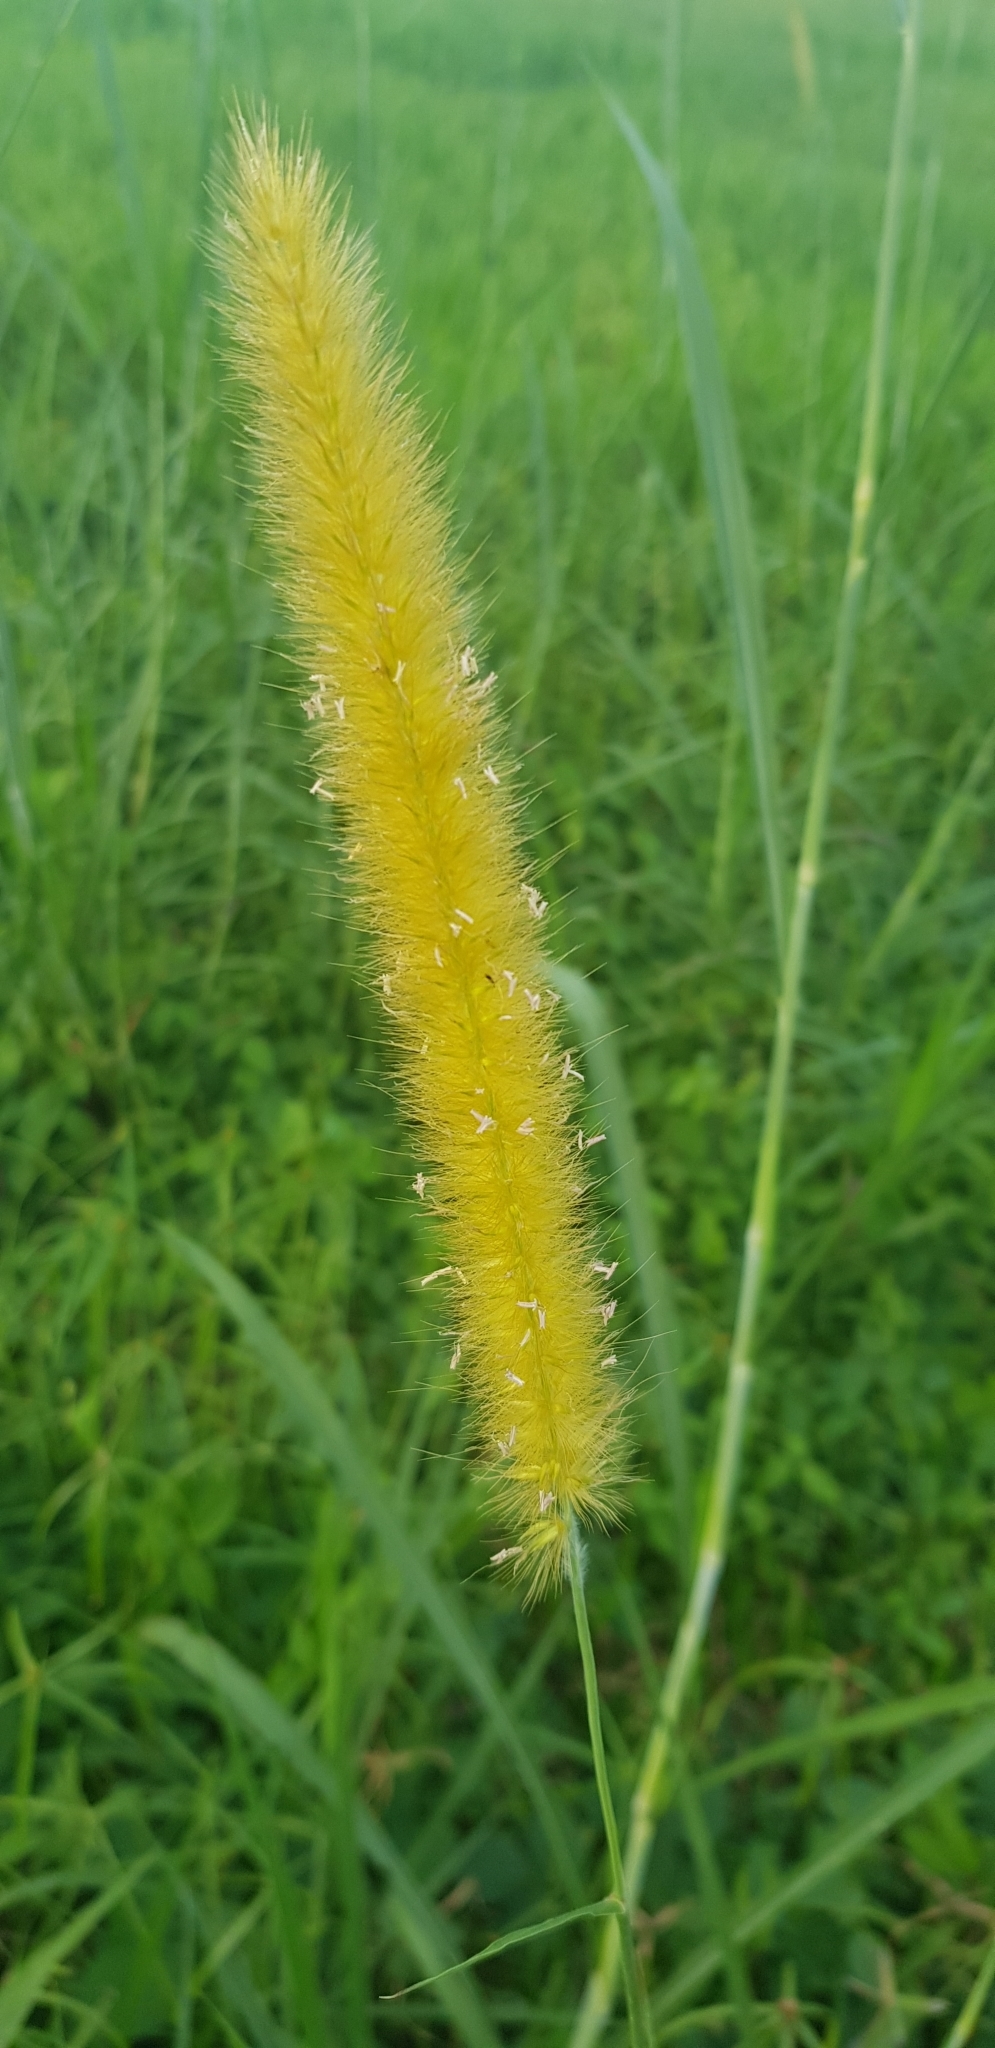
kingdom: Plantae
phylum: Tracheophyta
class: Liliopsida
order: Poales
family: Poaceae
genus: Cenchrus
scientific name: Cenchrus setosus
